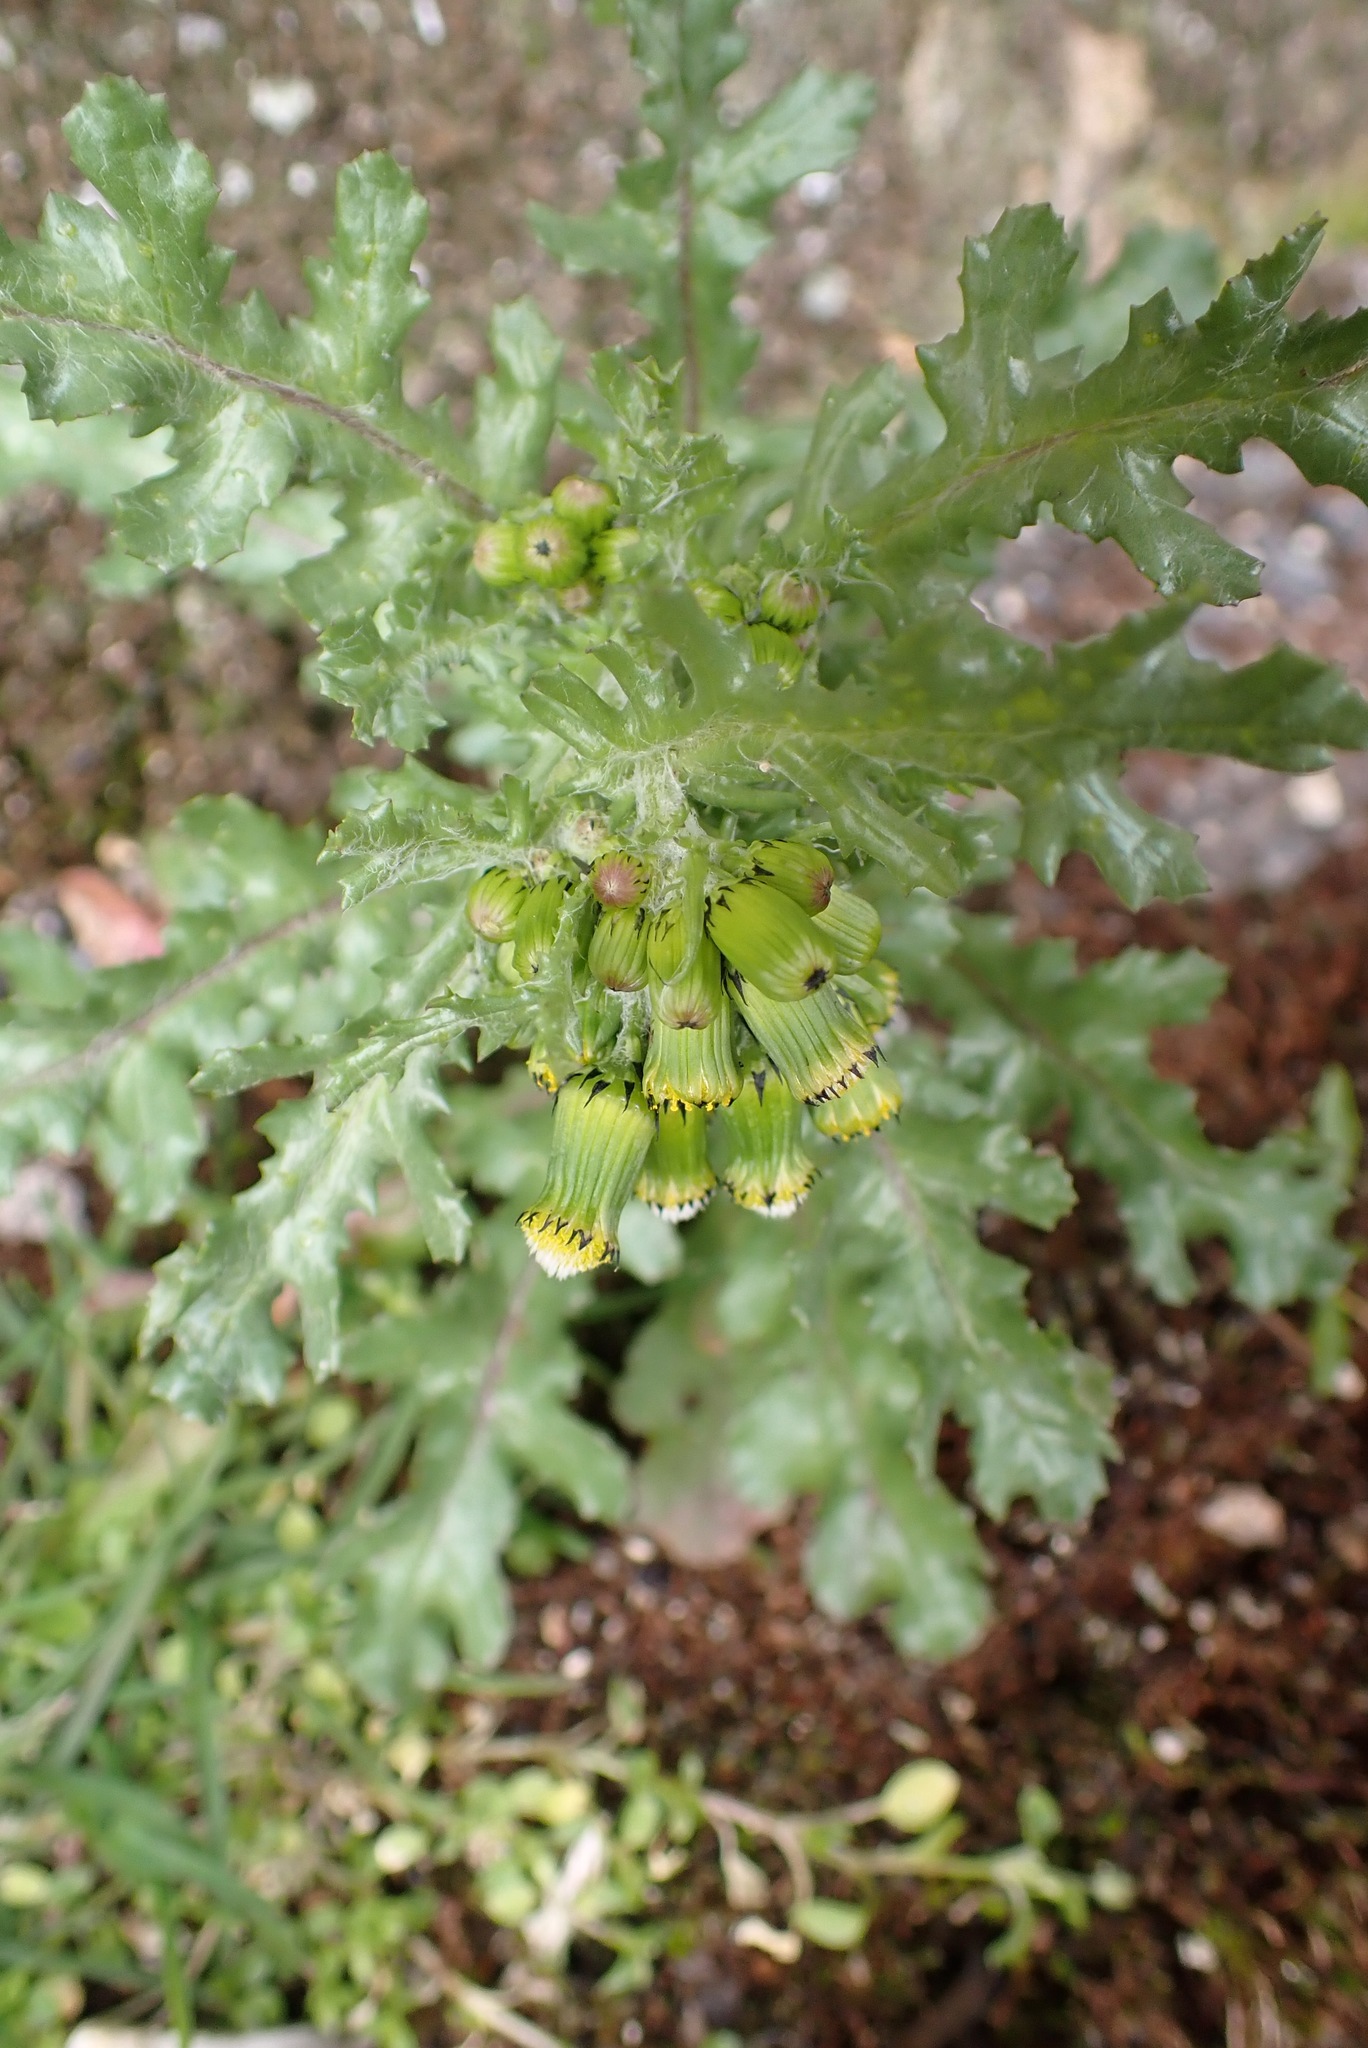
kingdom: Plantae
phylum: Tracheophyta
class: Magnoliopsida
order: Asterales
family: Asteraceae
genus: Senecio
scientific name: Senecio vulgaris
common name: Old-man-in-the-spring
